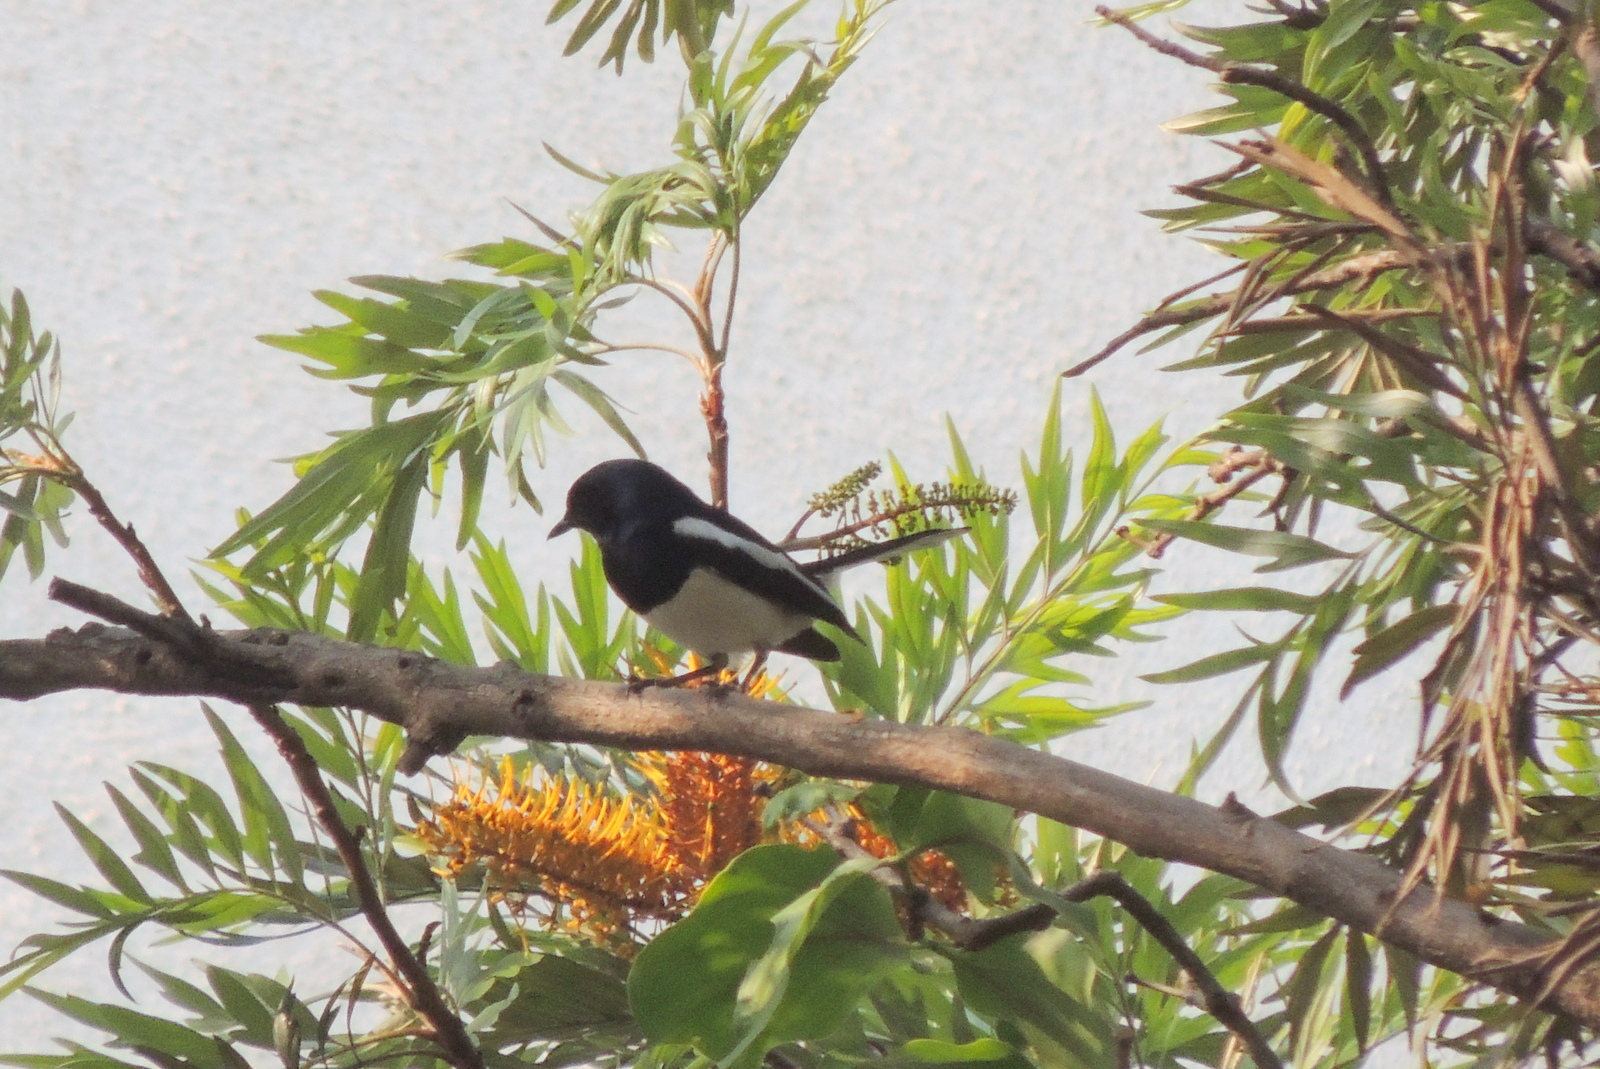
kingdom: Animalia
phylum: Chordata
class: Aves
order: Passeriformes
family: Muscicapidae
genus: Copsychus
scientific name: Copsychus saularis
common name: Oriental magpie-robin
